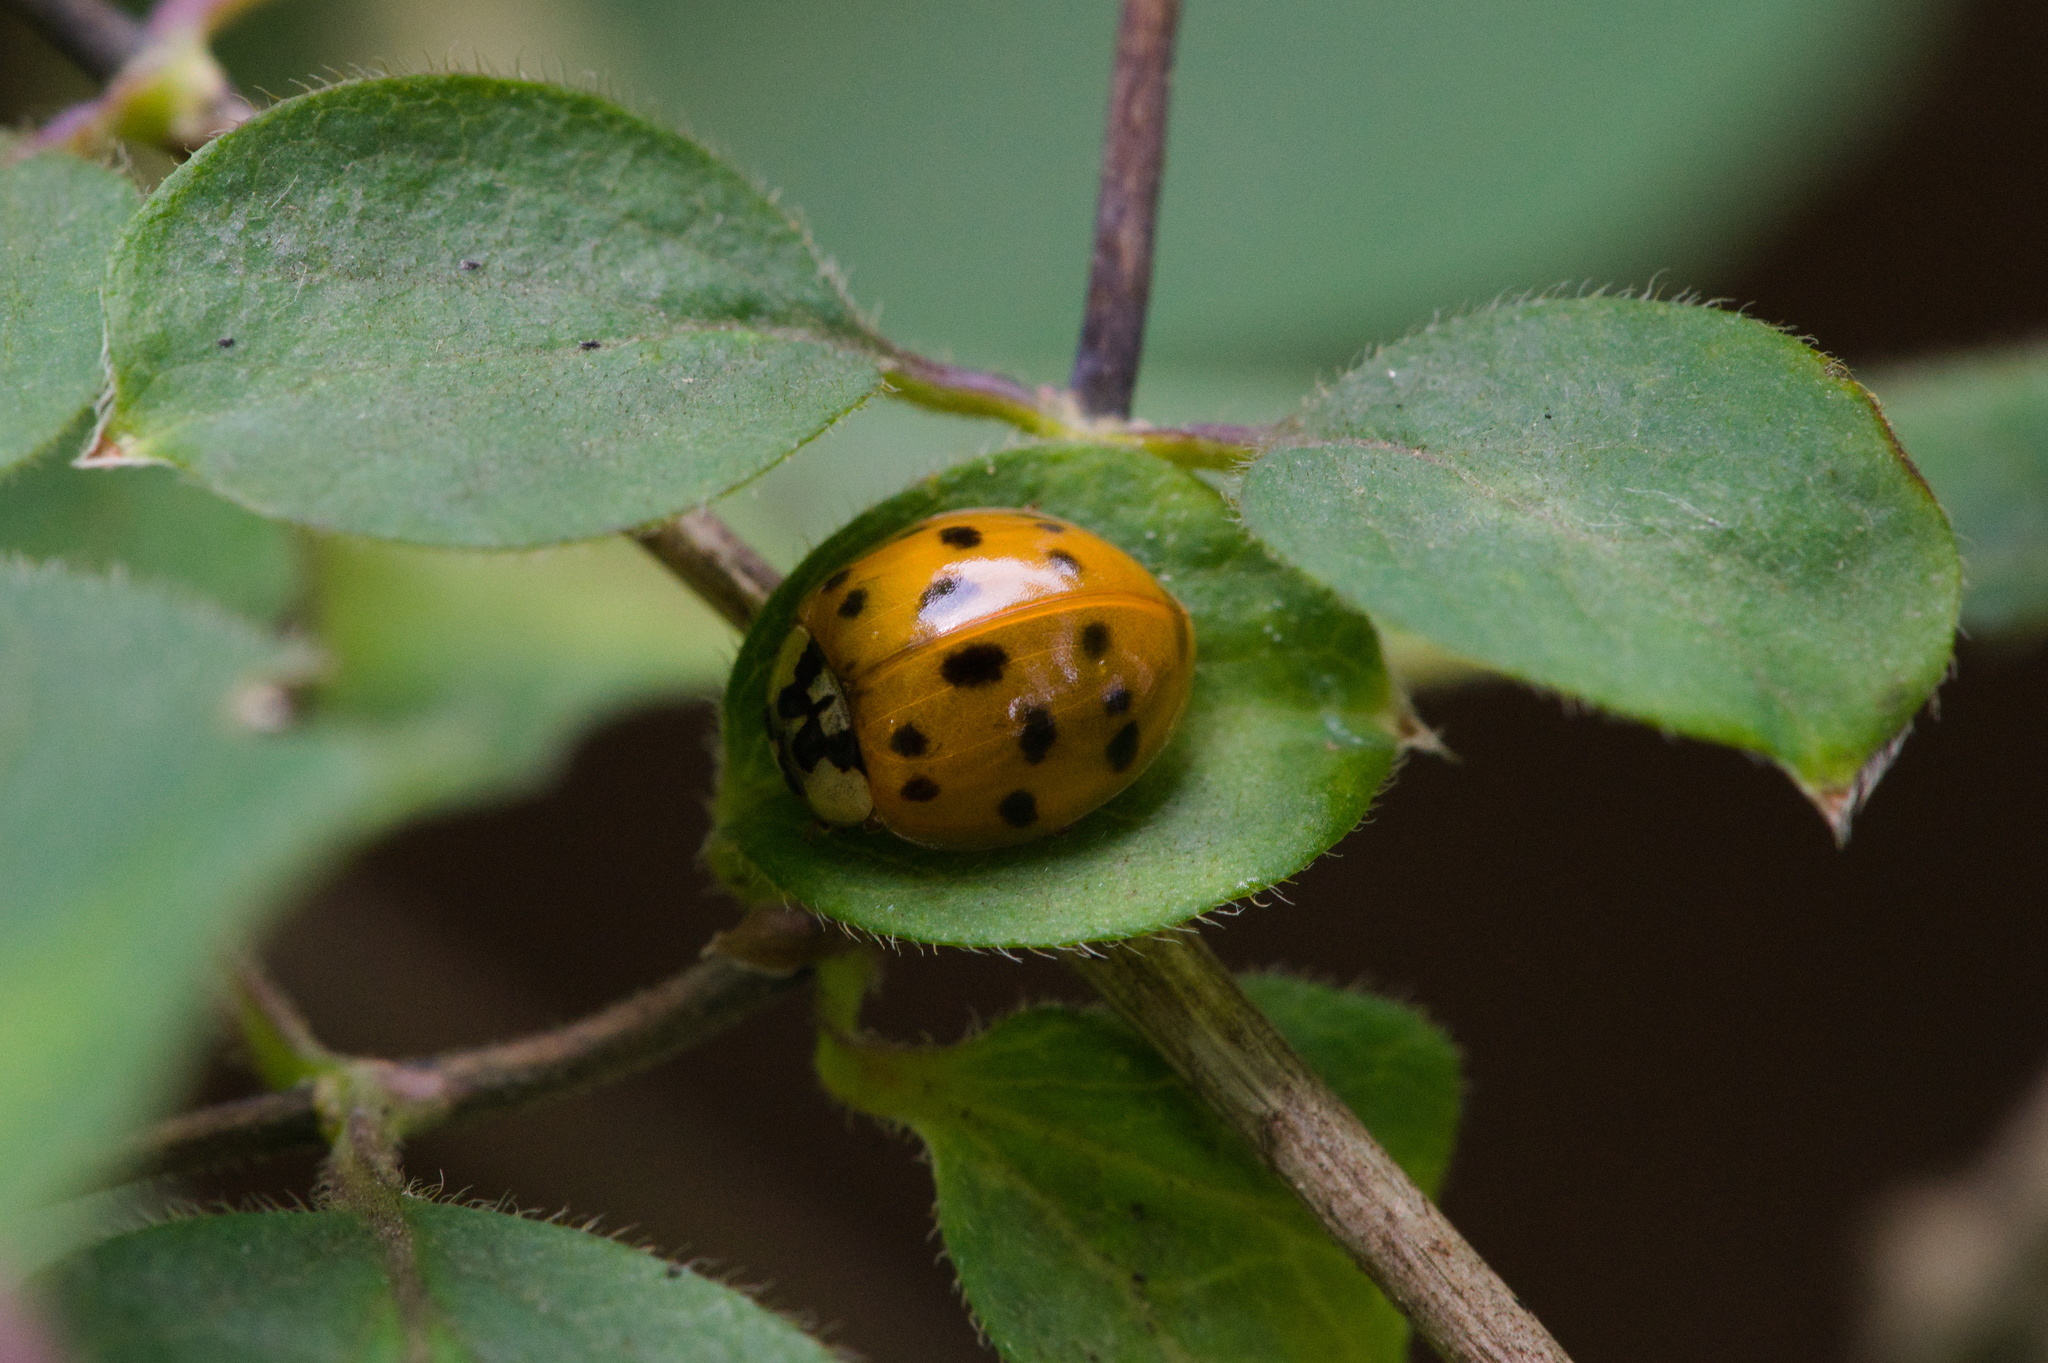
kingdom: Animalia
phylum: Arthropoda
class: Insecta
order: Coleoptera
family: Coccinellidae
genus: Harmonia
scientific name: Harmonia axyridis
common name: Harlequin ladybird
